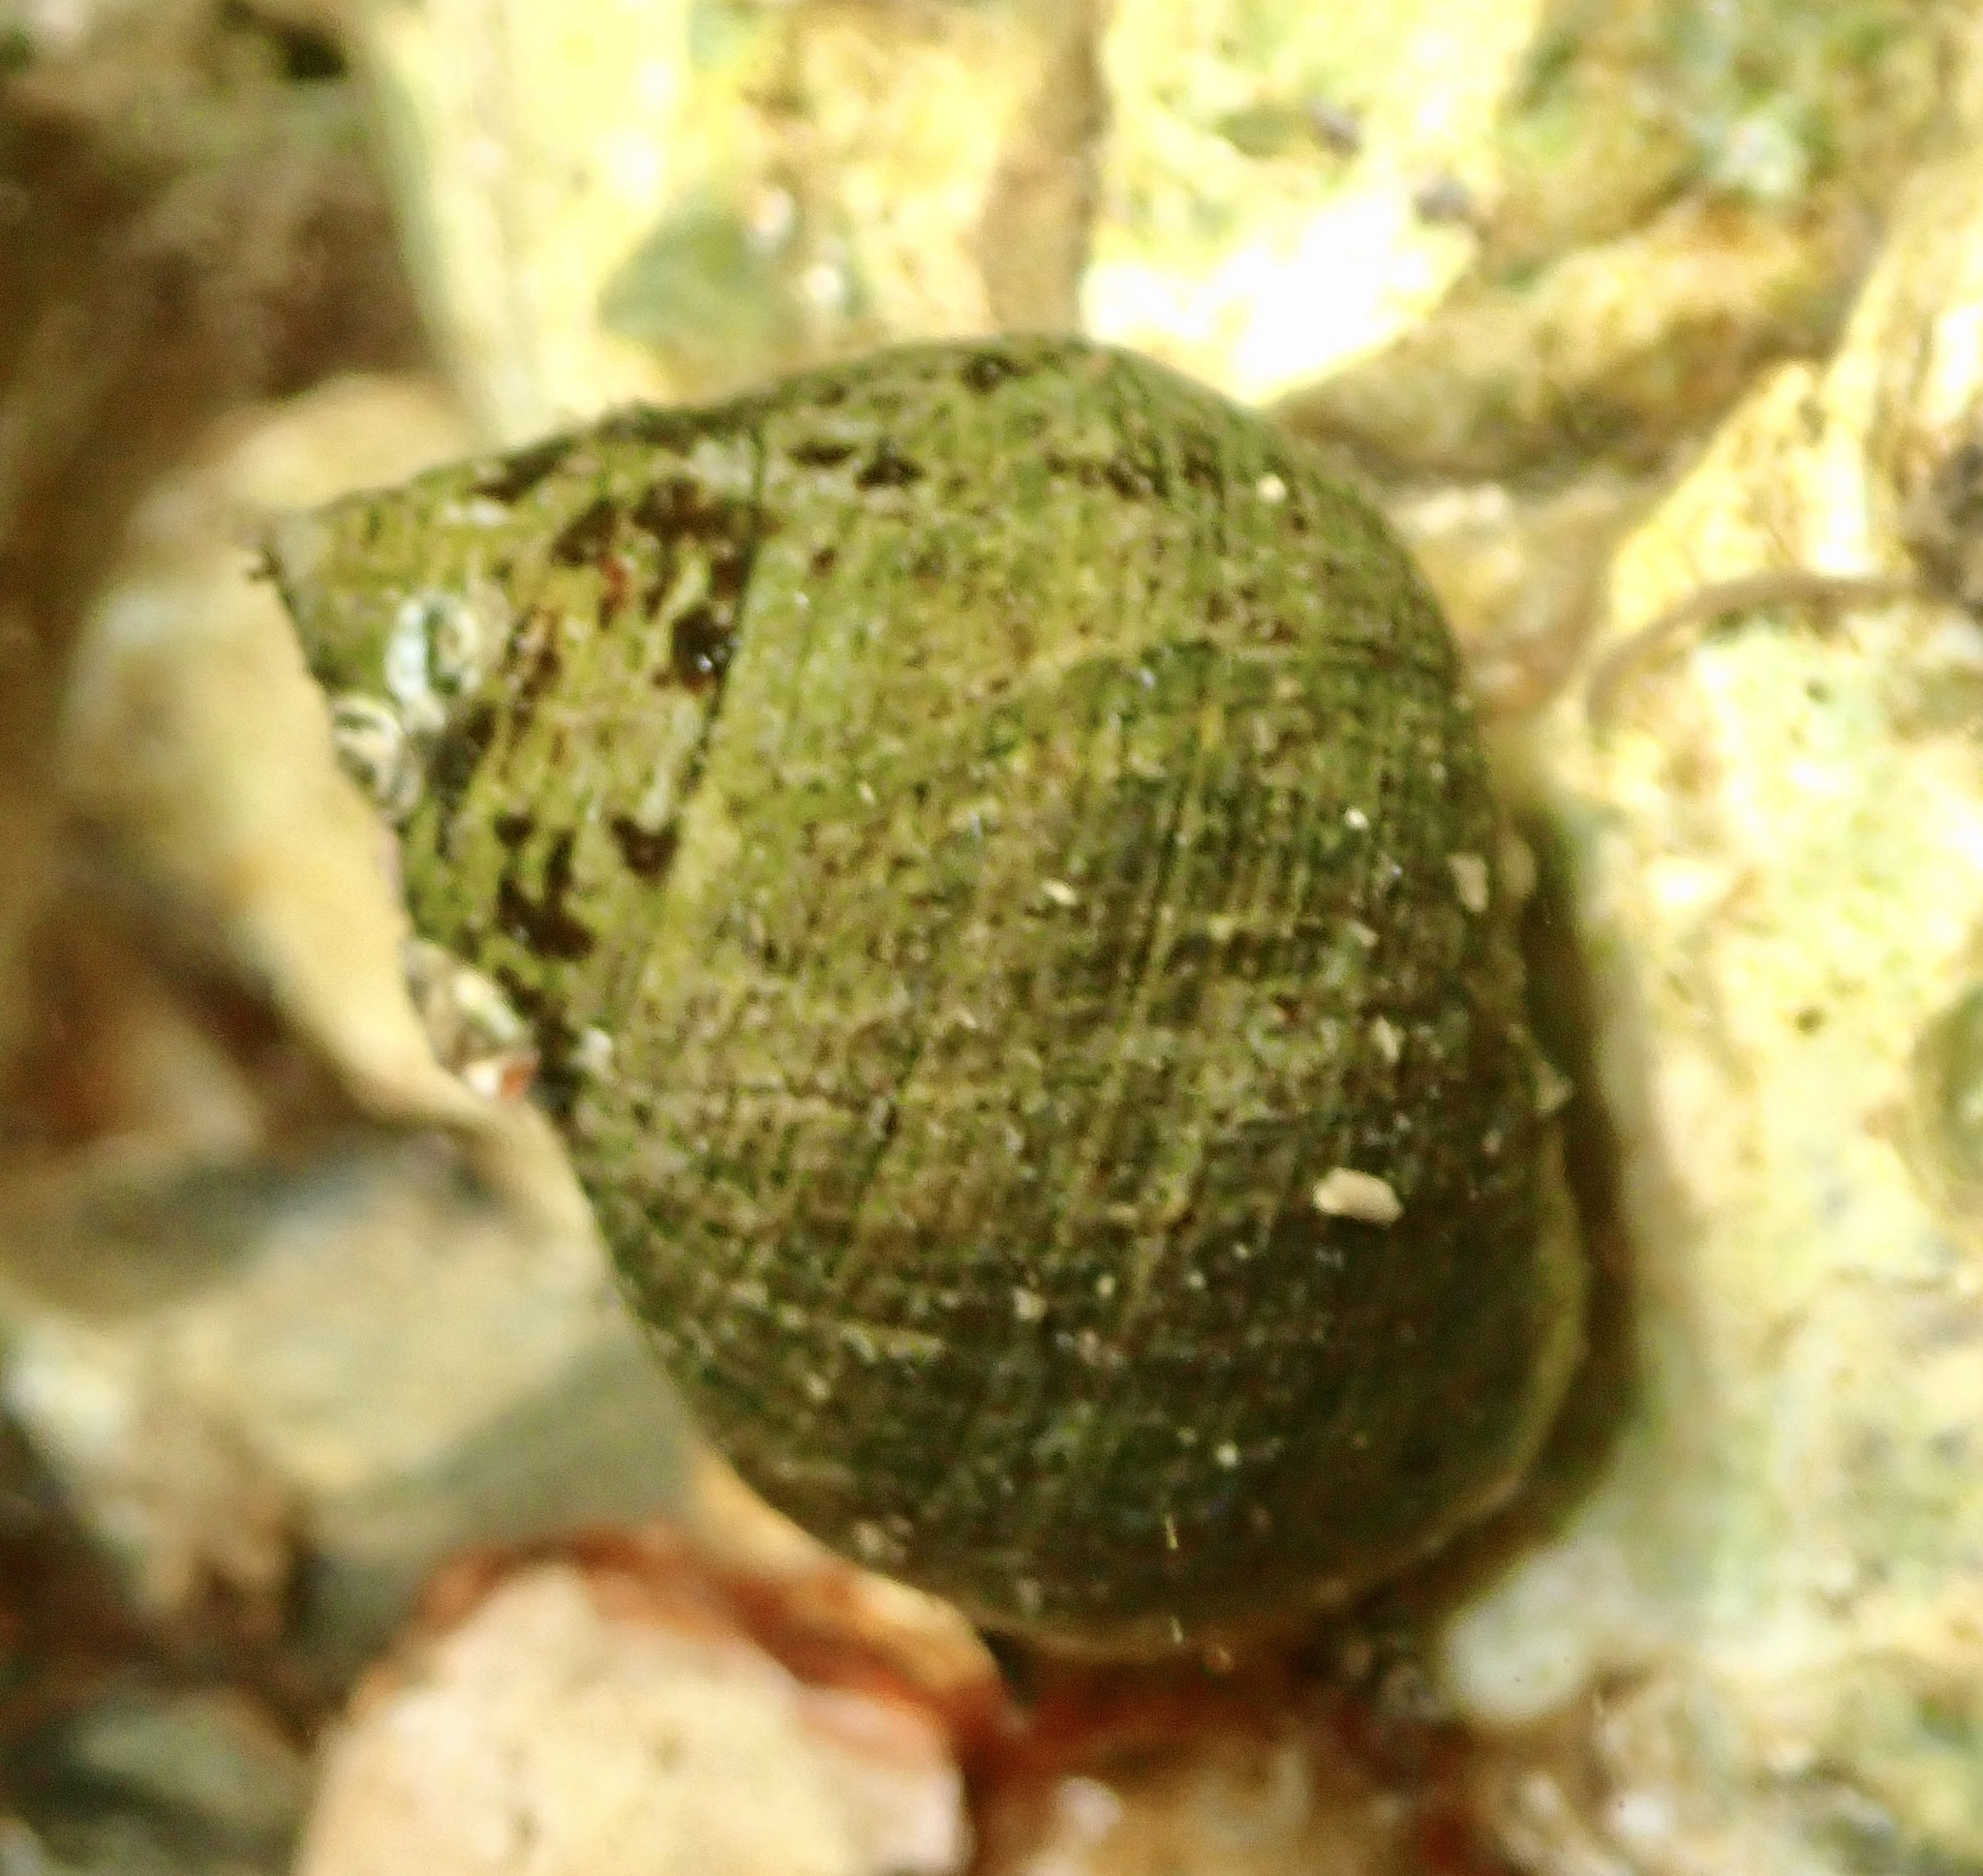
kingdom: Animalia
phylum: Mollusca
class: Gastropoda
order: Littorinimorpha
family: Littorinidae
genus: Littorina
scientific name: Littorina littorea
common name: Common periwinkle
